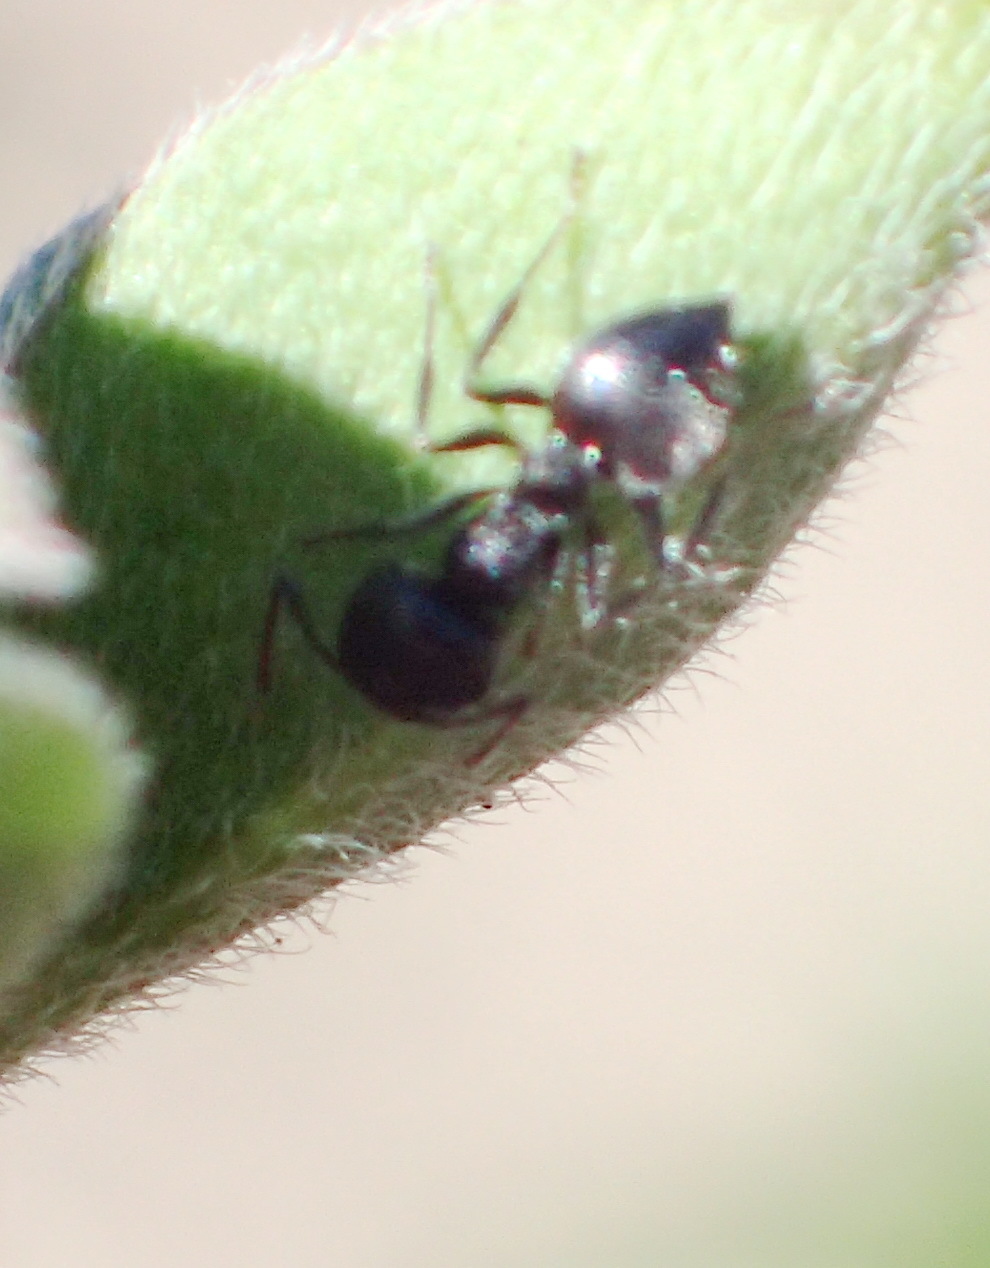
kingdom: Animalia
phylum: Arthropoda
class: Insecta
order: Hymenoptera
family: Formicidae
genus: Crematogaster
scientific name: Crematogaster peringueyi
